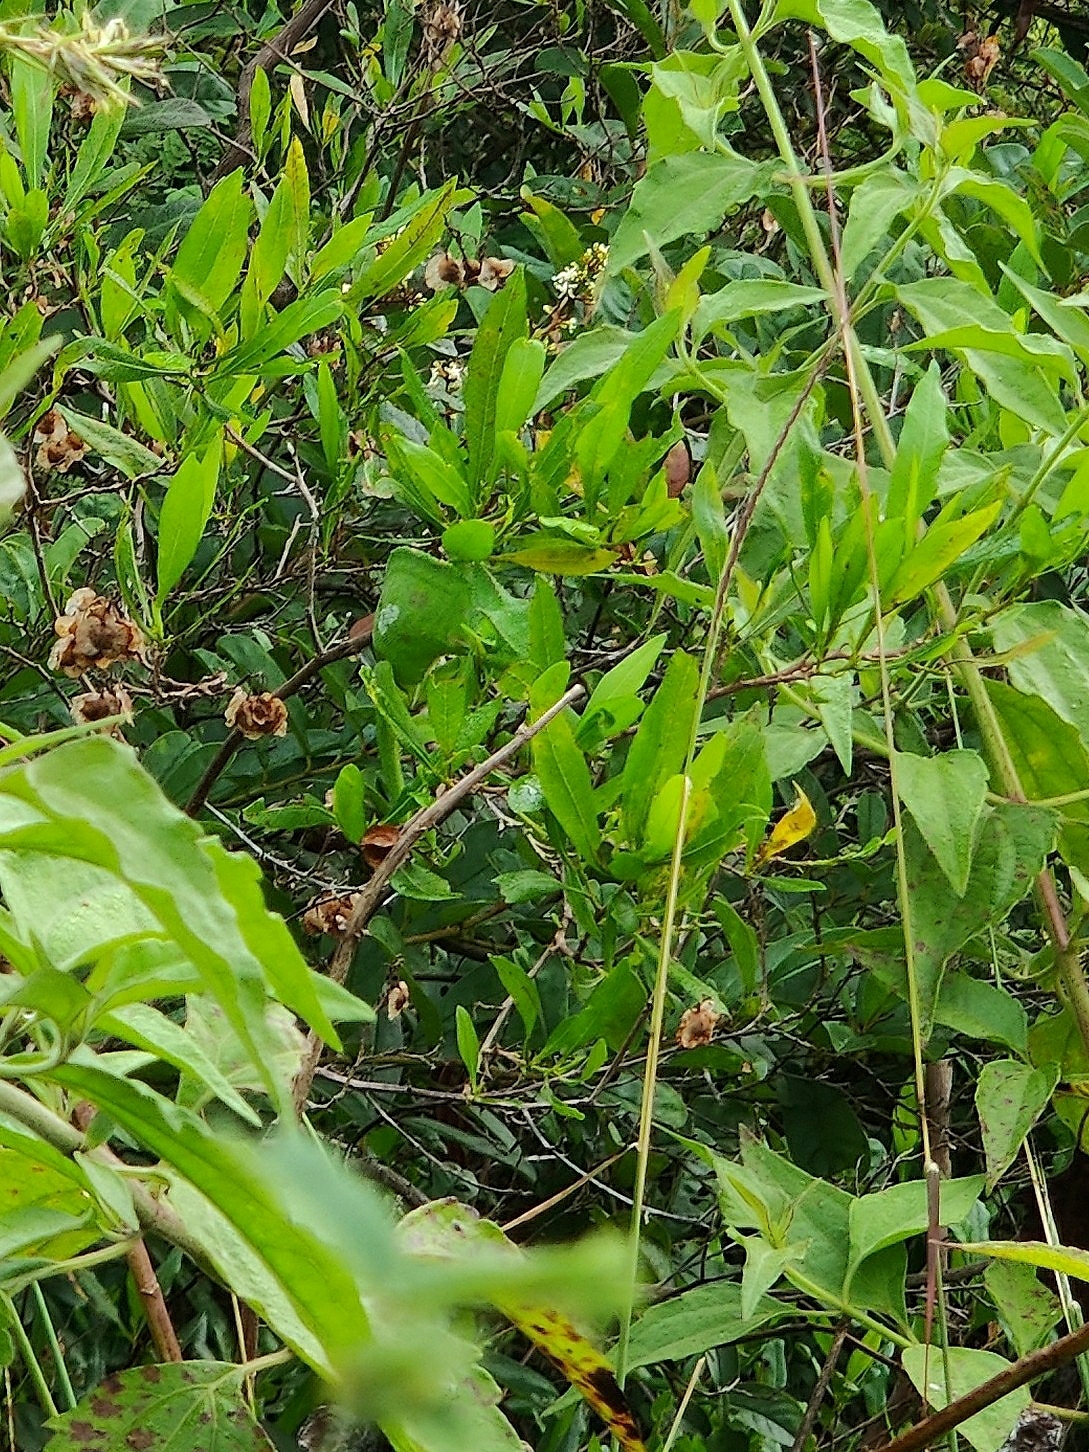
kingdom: Animalia
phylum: Chordata
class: Squamata
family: Chamaeleonidae
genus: Chamaeleo
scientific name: Chamaeleo zeylanicus
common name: Indian chameleon
